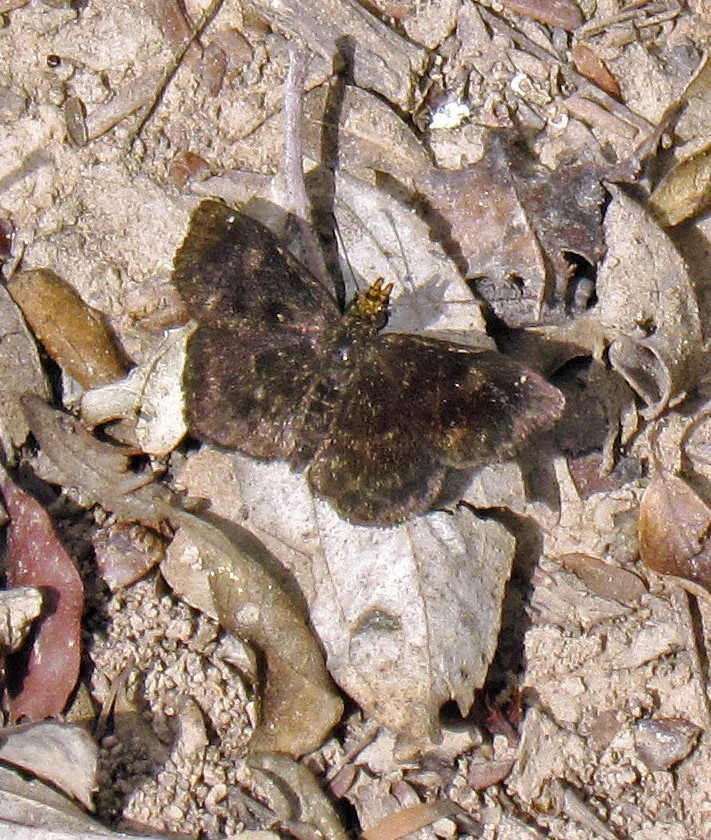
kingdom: Animalia
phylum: Arthropoda
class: Insecta
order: Lepidoptera
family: Hesperiidae
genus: Staphylus
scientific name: Staphylus musculus
